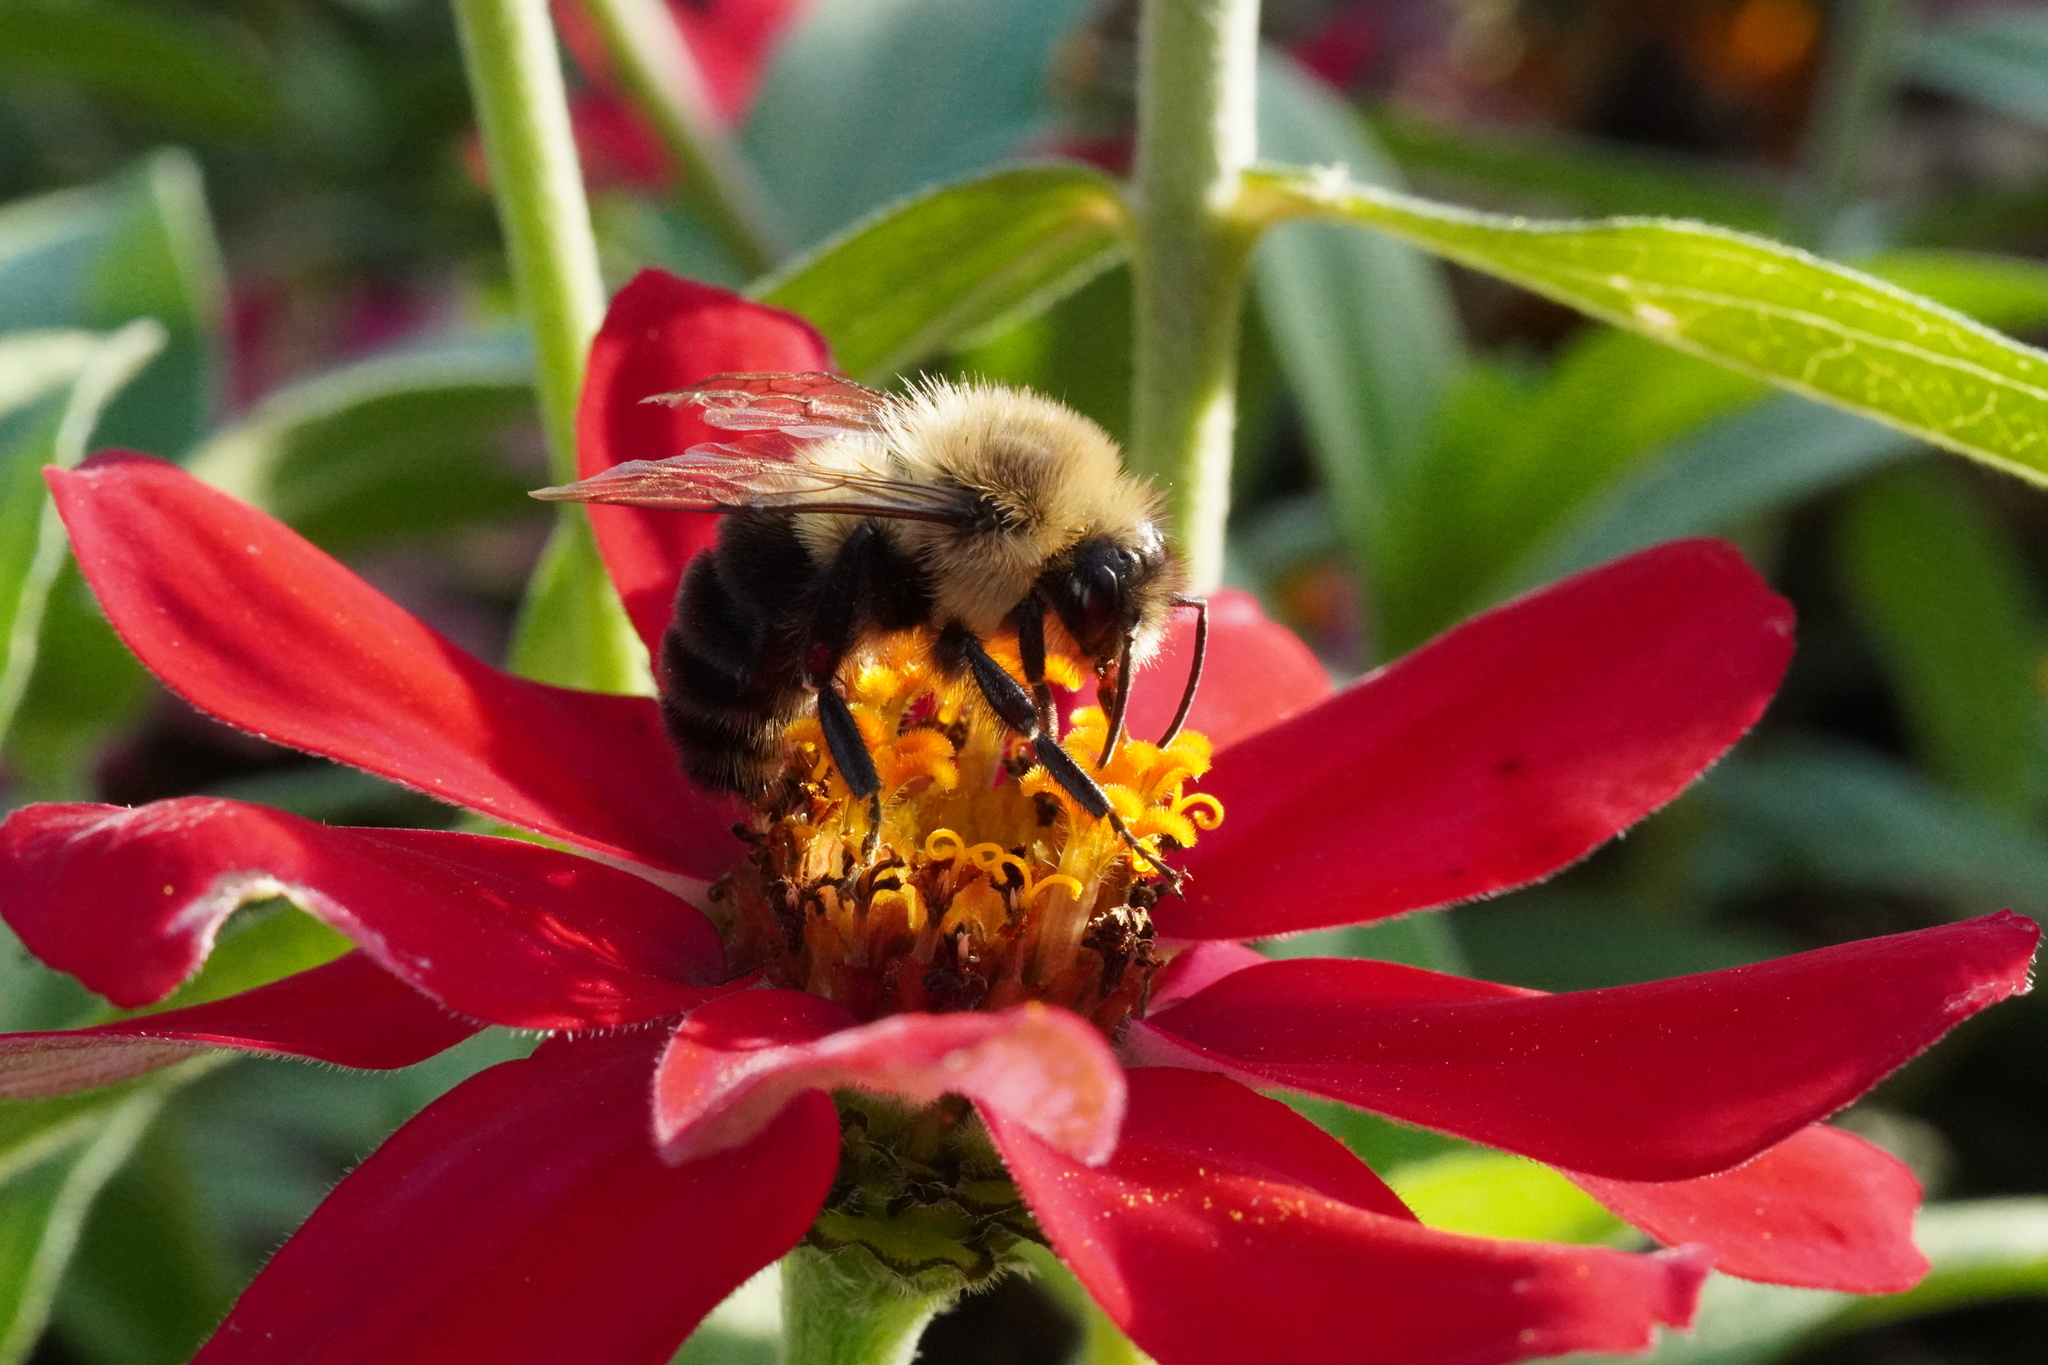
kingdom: Animalia
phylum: Arthropoda
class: Insecta
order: Hymenoptera
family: Apidae
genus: Bombus
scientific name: Bombus impatiens
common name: Common eastern bumble bee
